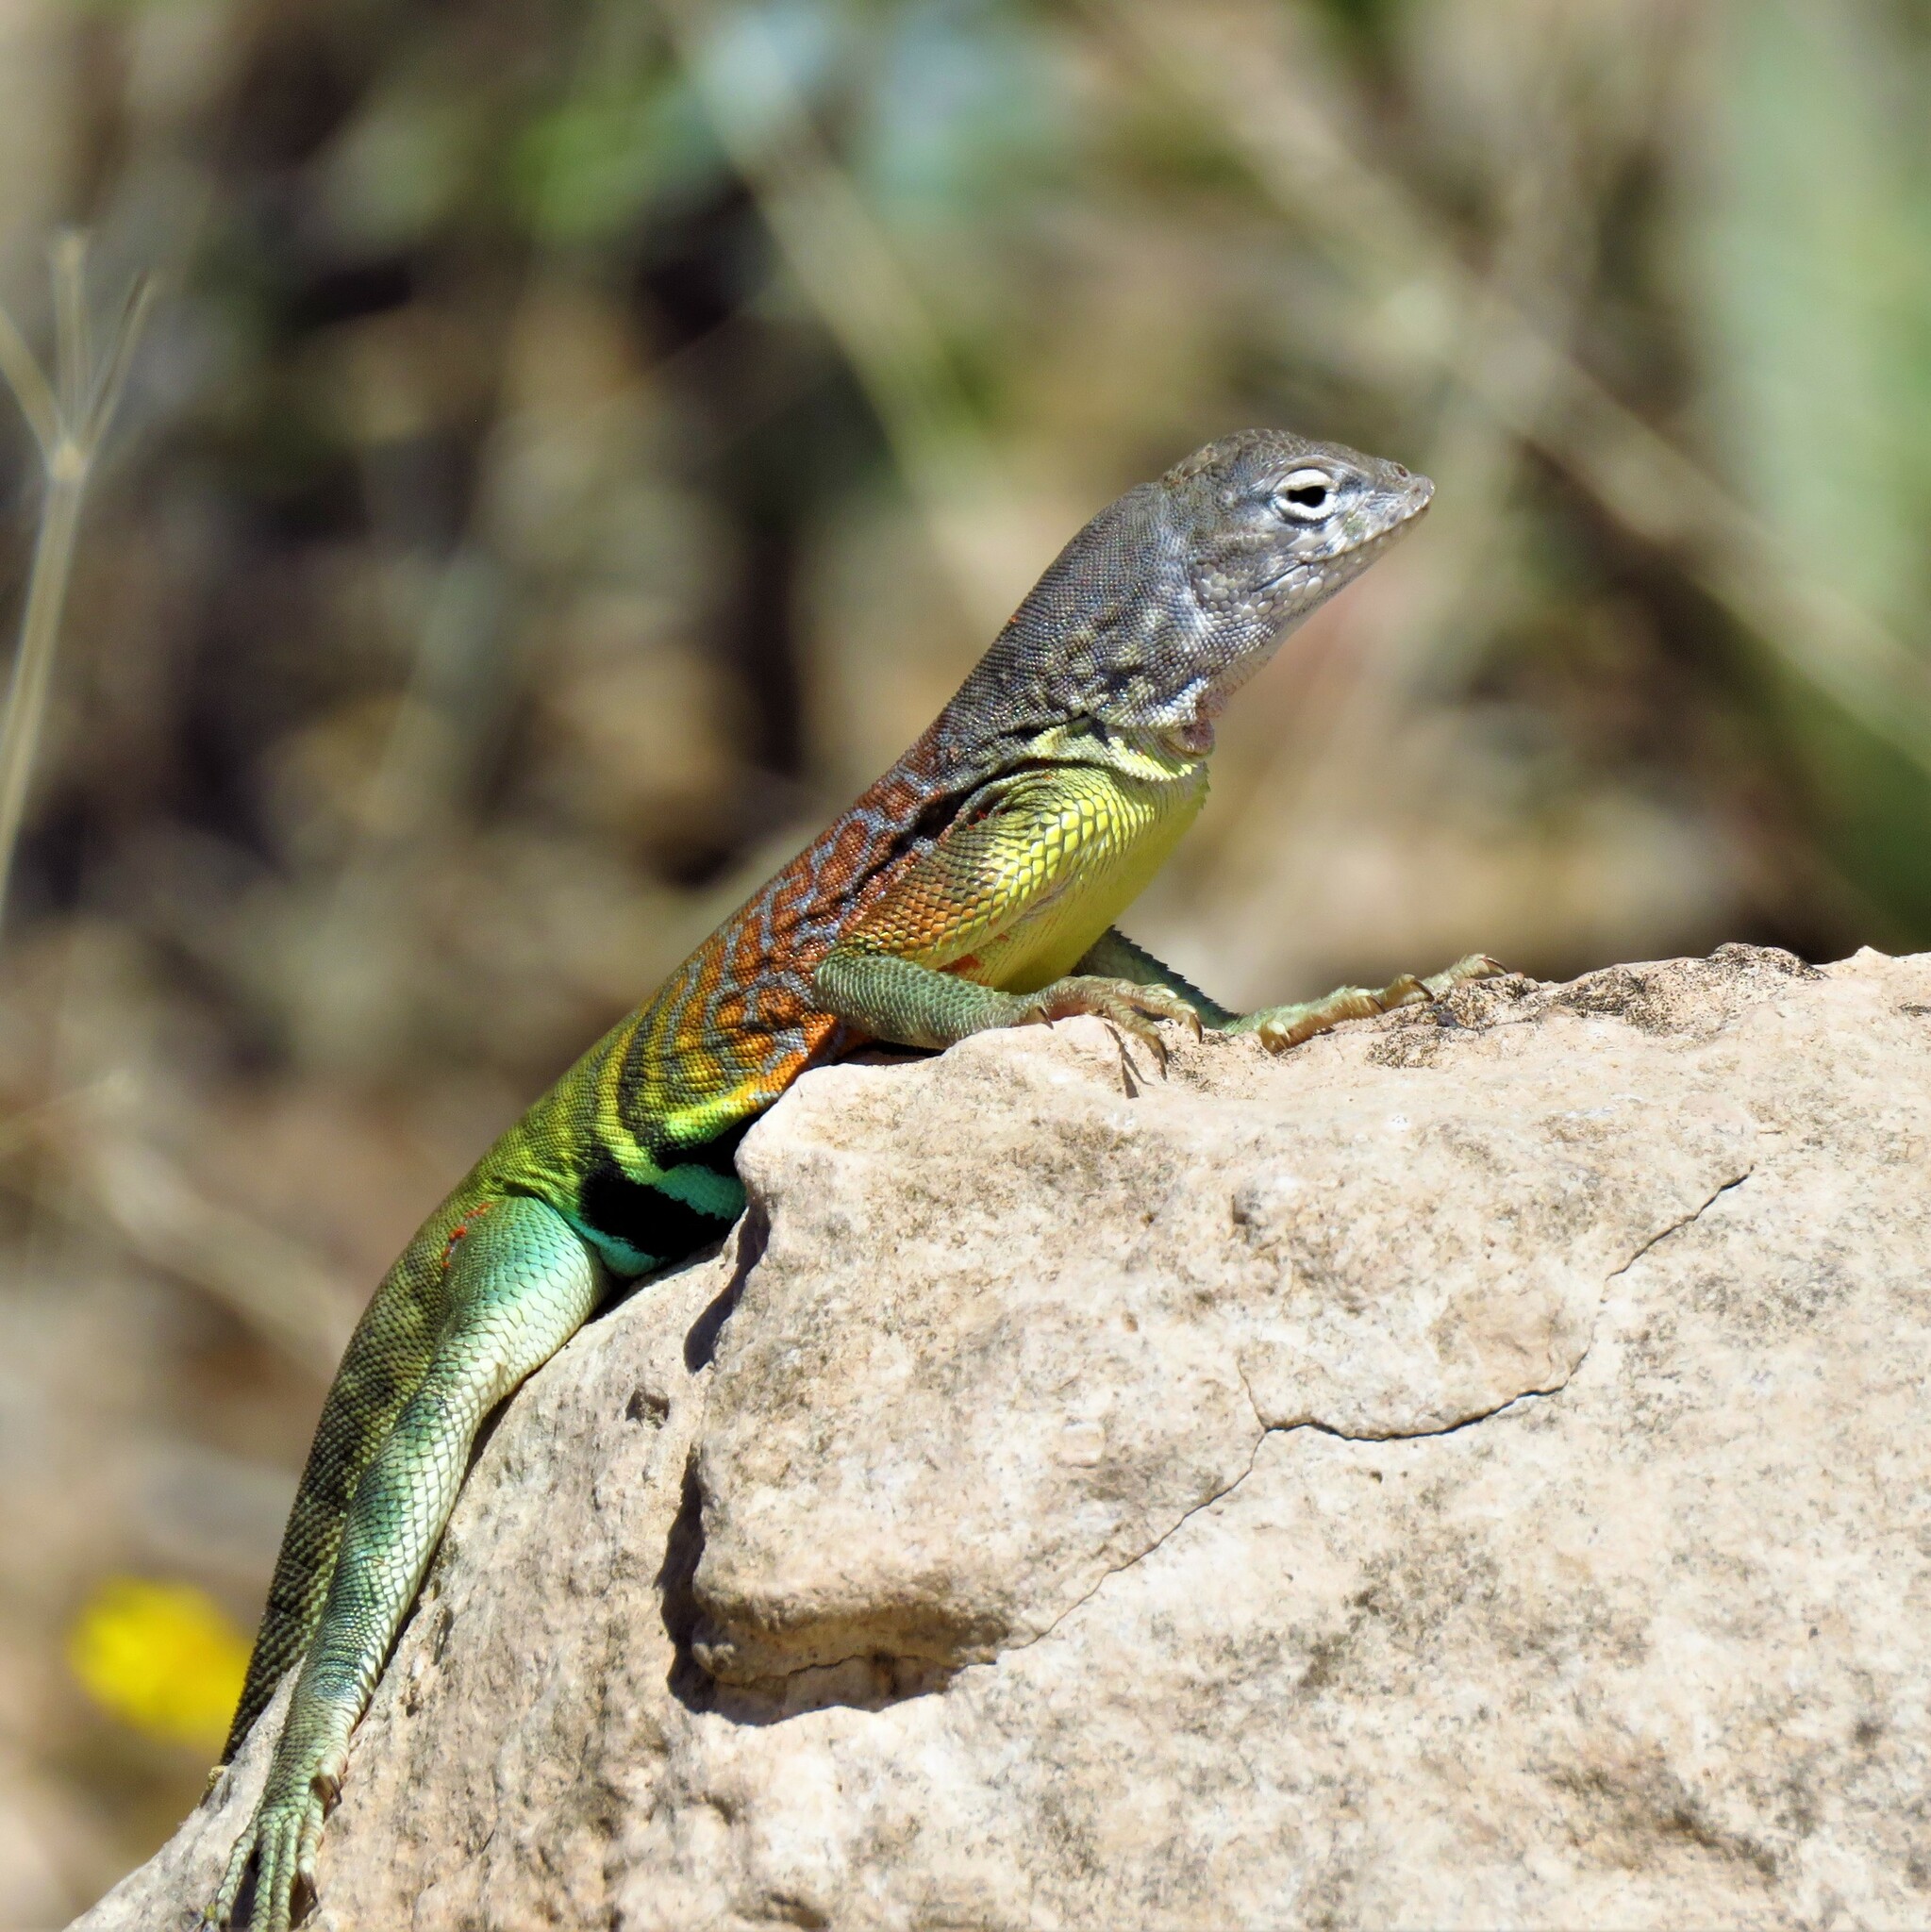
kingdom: Animalia
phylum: Chordata
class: Squamata
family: Phrynosomatidae
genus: Cophosaurus
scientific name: Cophosaurus texanus
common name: Greater earless lizard
